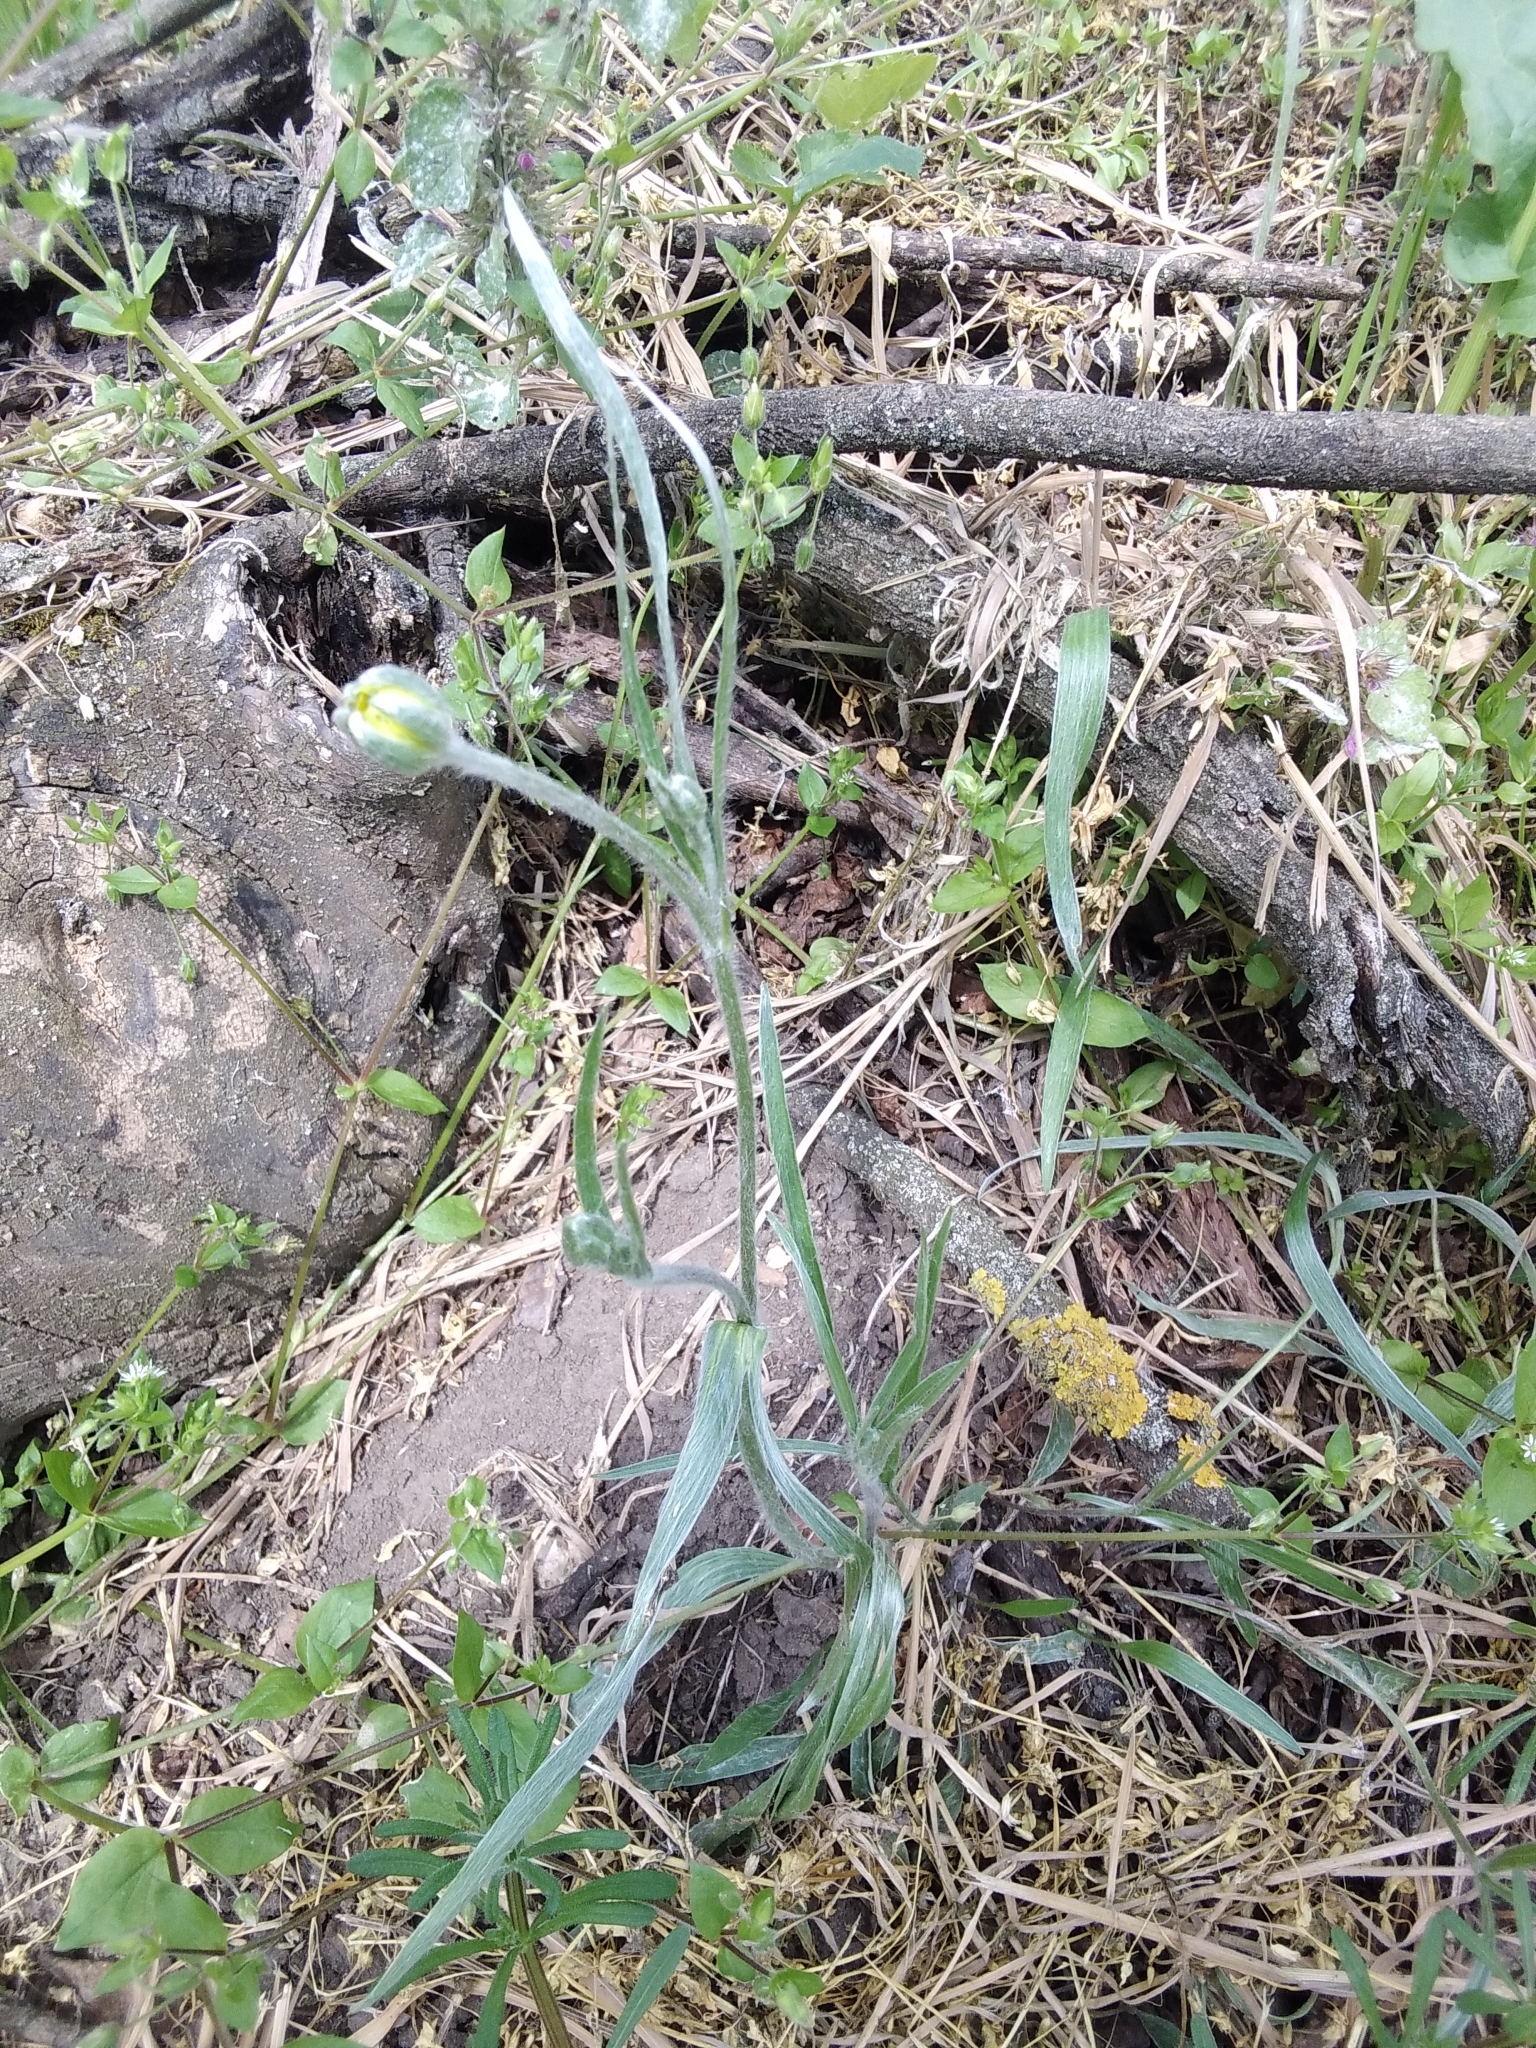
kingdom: Plantae
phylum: Tracheophyta
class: Magnoliopsida
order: Ranunculales
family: Ranunculaceae
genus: Ranunculus
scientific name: Ranunculus illyricus
